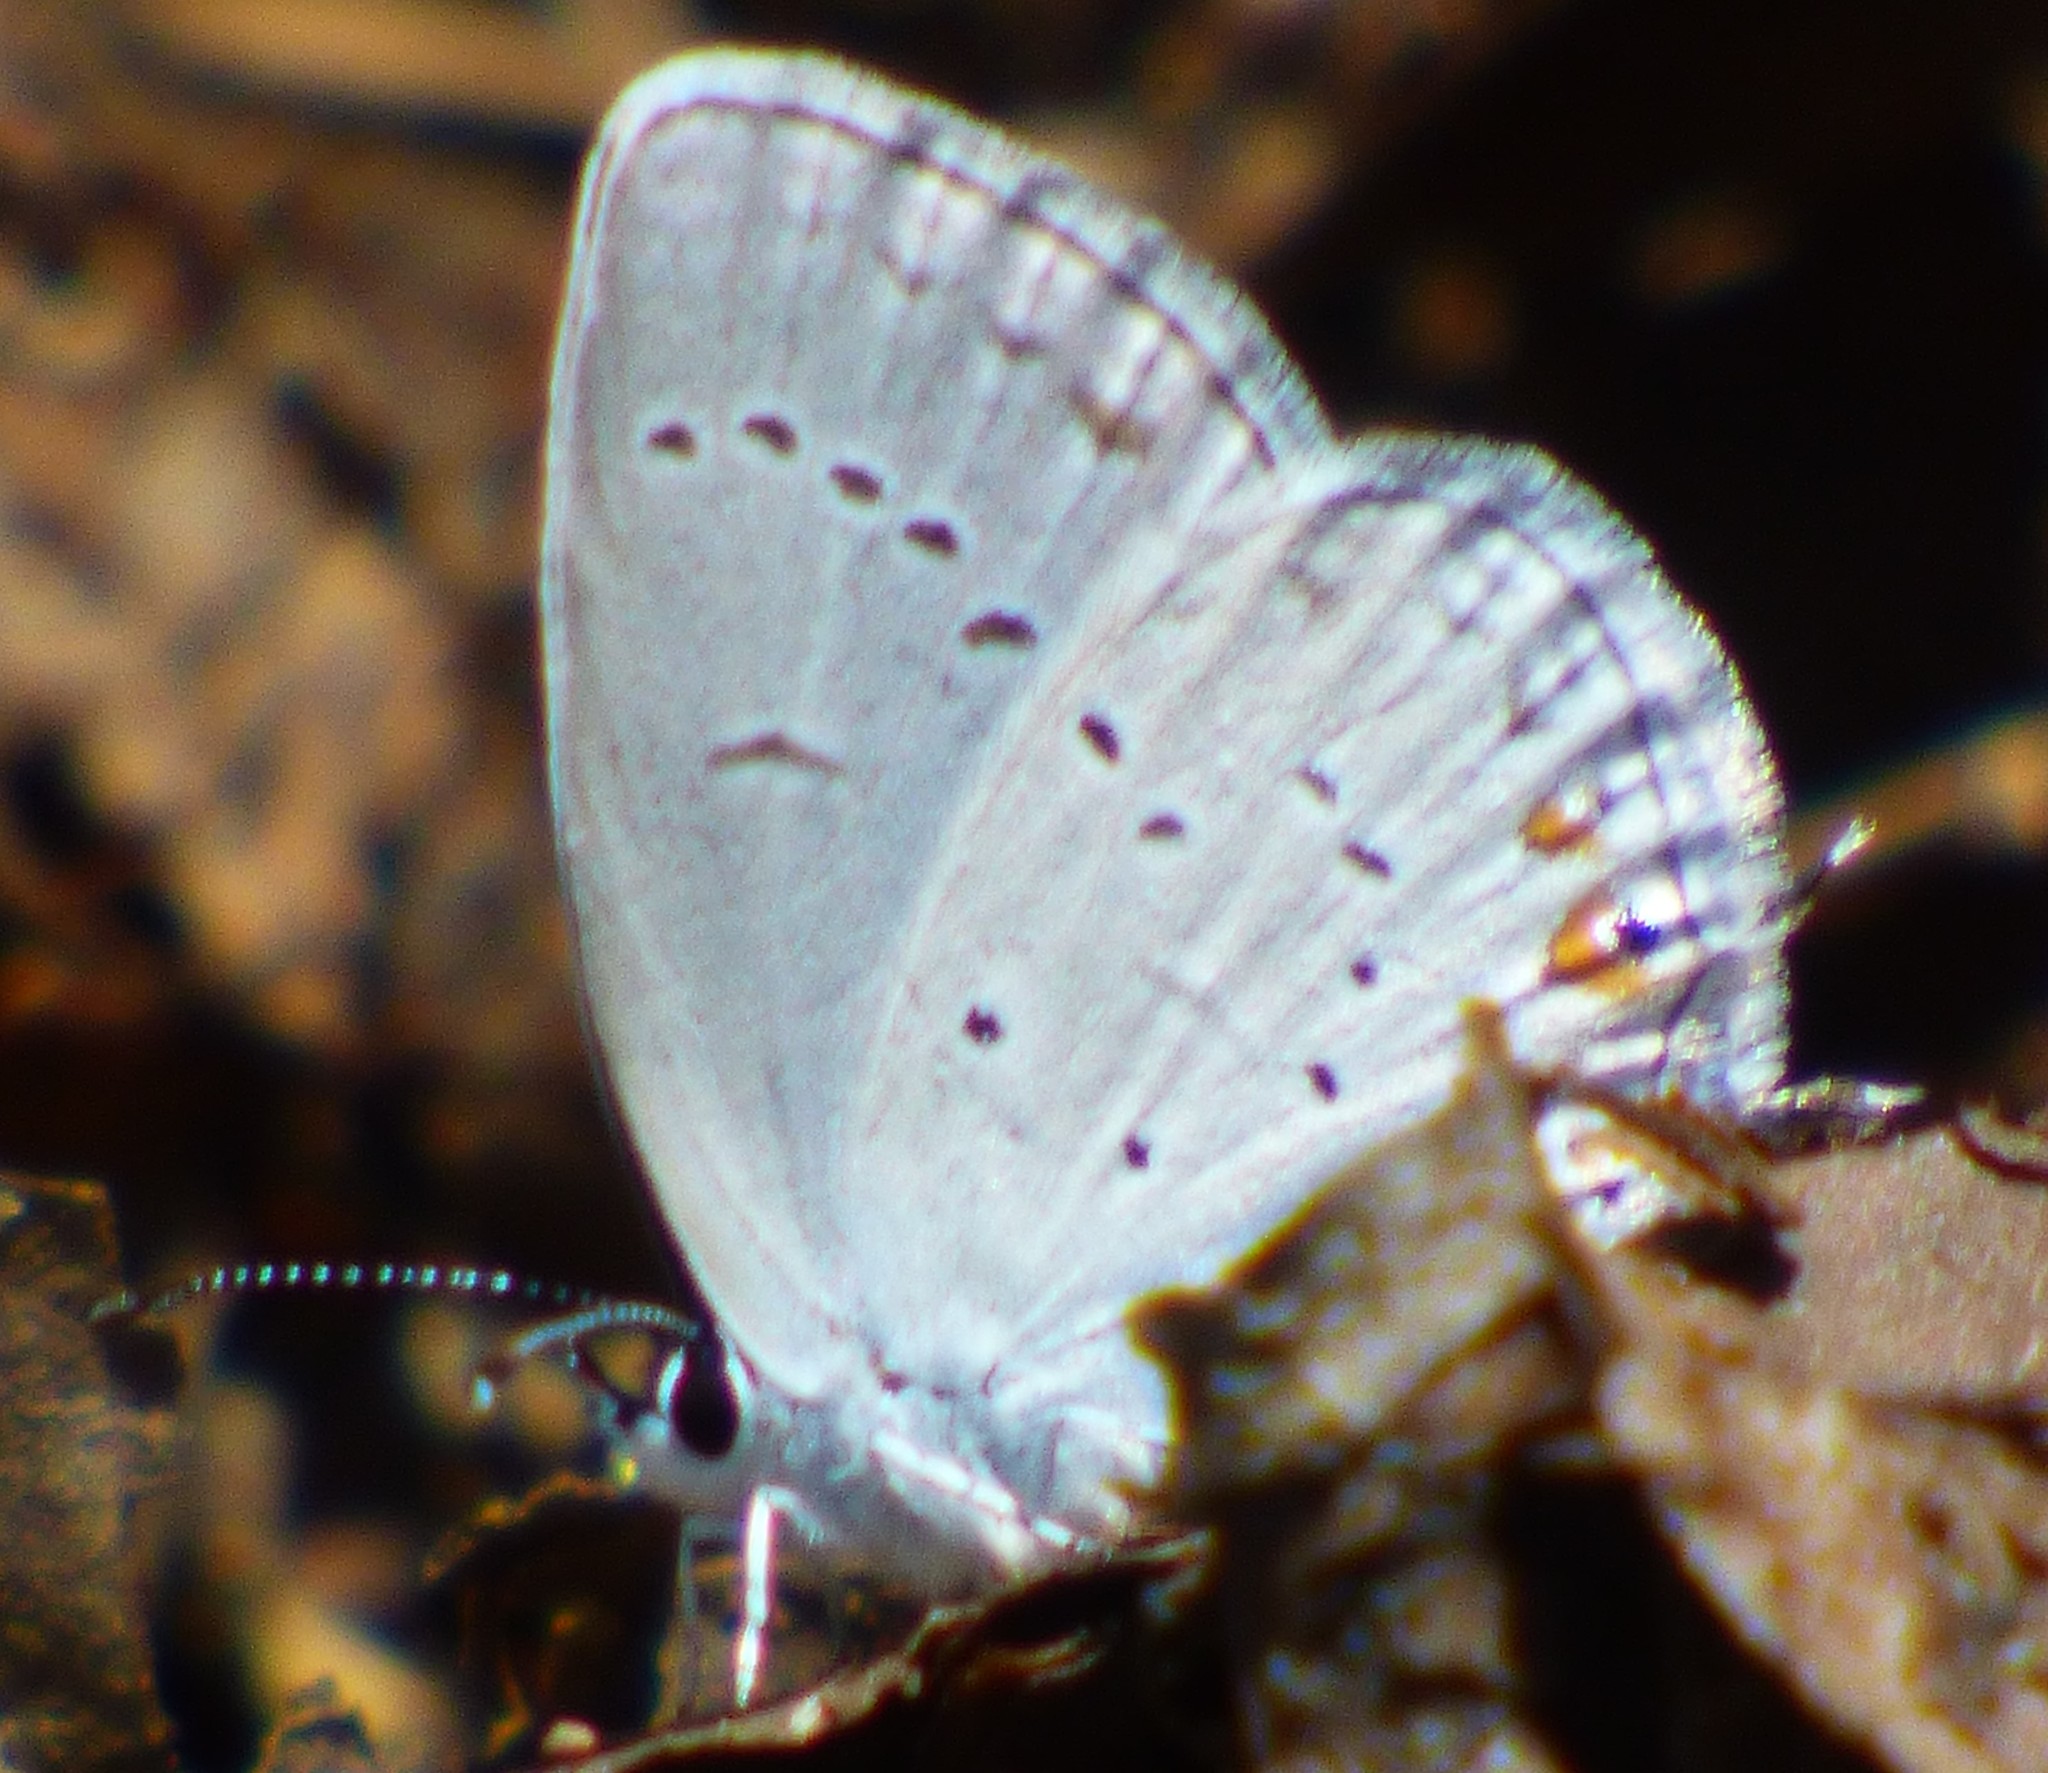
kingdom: Animalia
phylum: Arthropoda
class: Insecta
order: Lepidoptera
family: Lycaenidae
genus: Elkalyce
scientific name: Elkalyce comyntas
